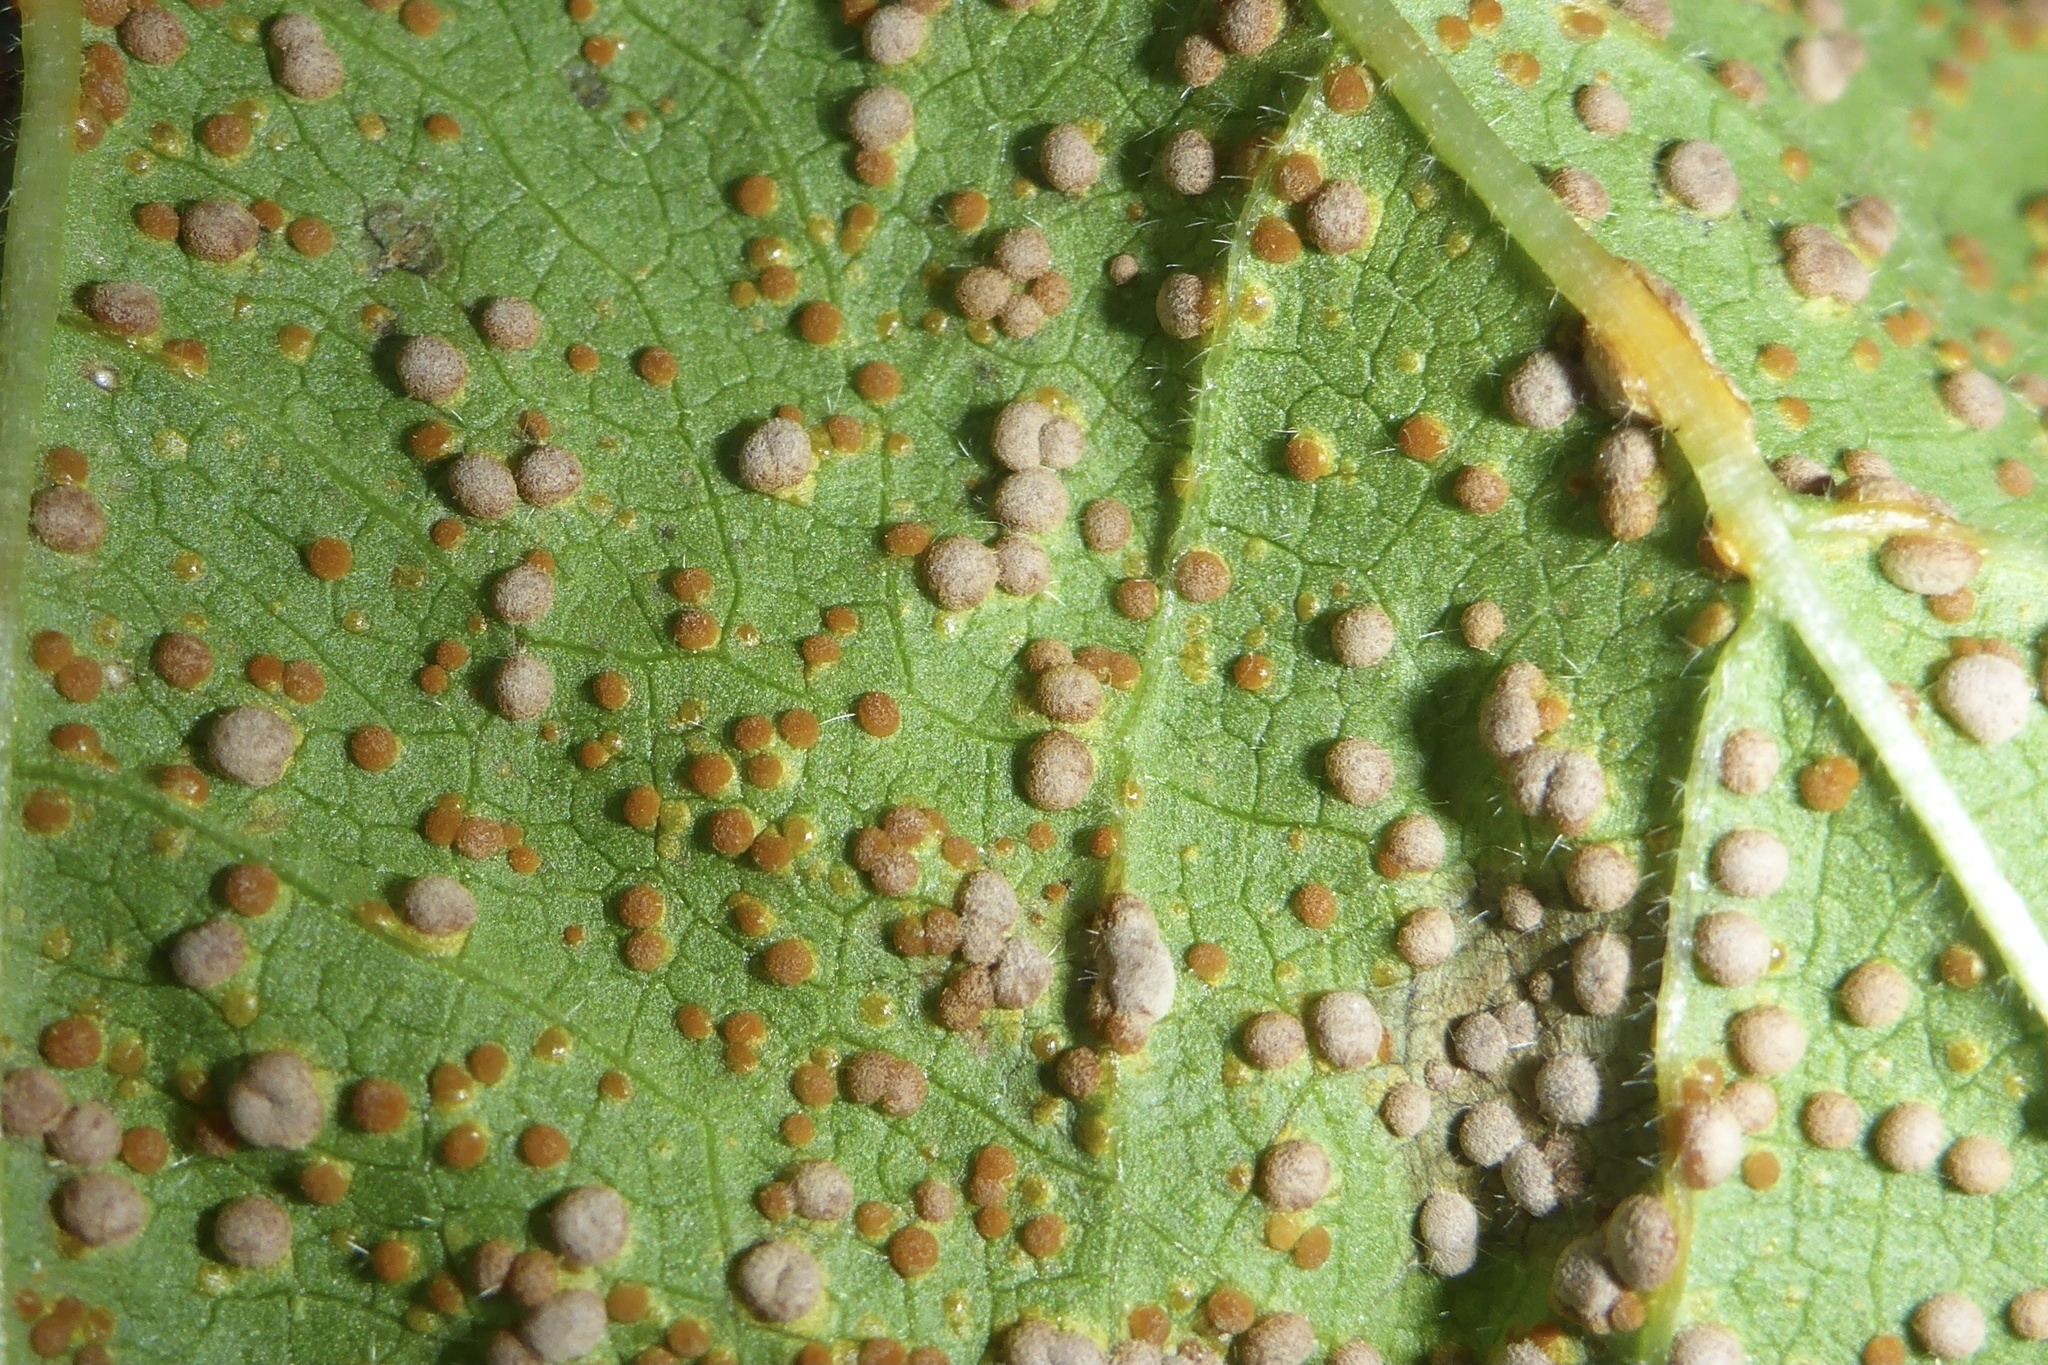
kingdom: Fungi
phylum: Basidiomycota
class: Pucciniomycetes
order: Pucciniales
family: Pucciniaceae
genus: Puccinia
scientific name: Puccinia malvacearum
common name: Hollyhock rust
